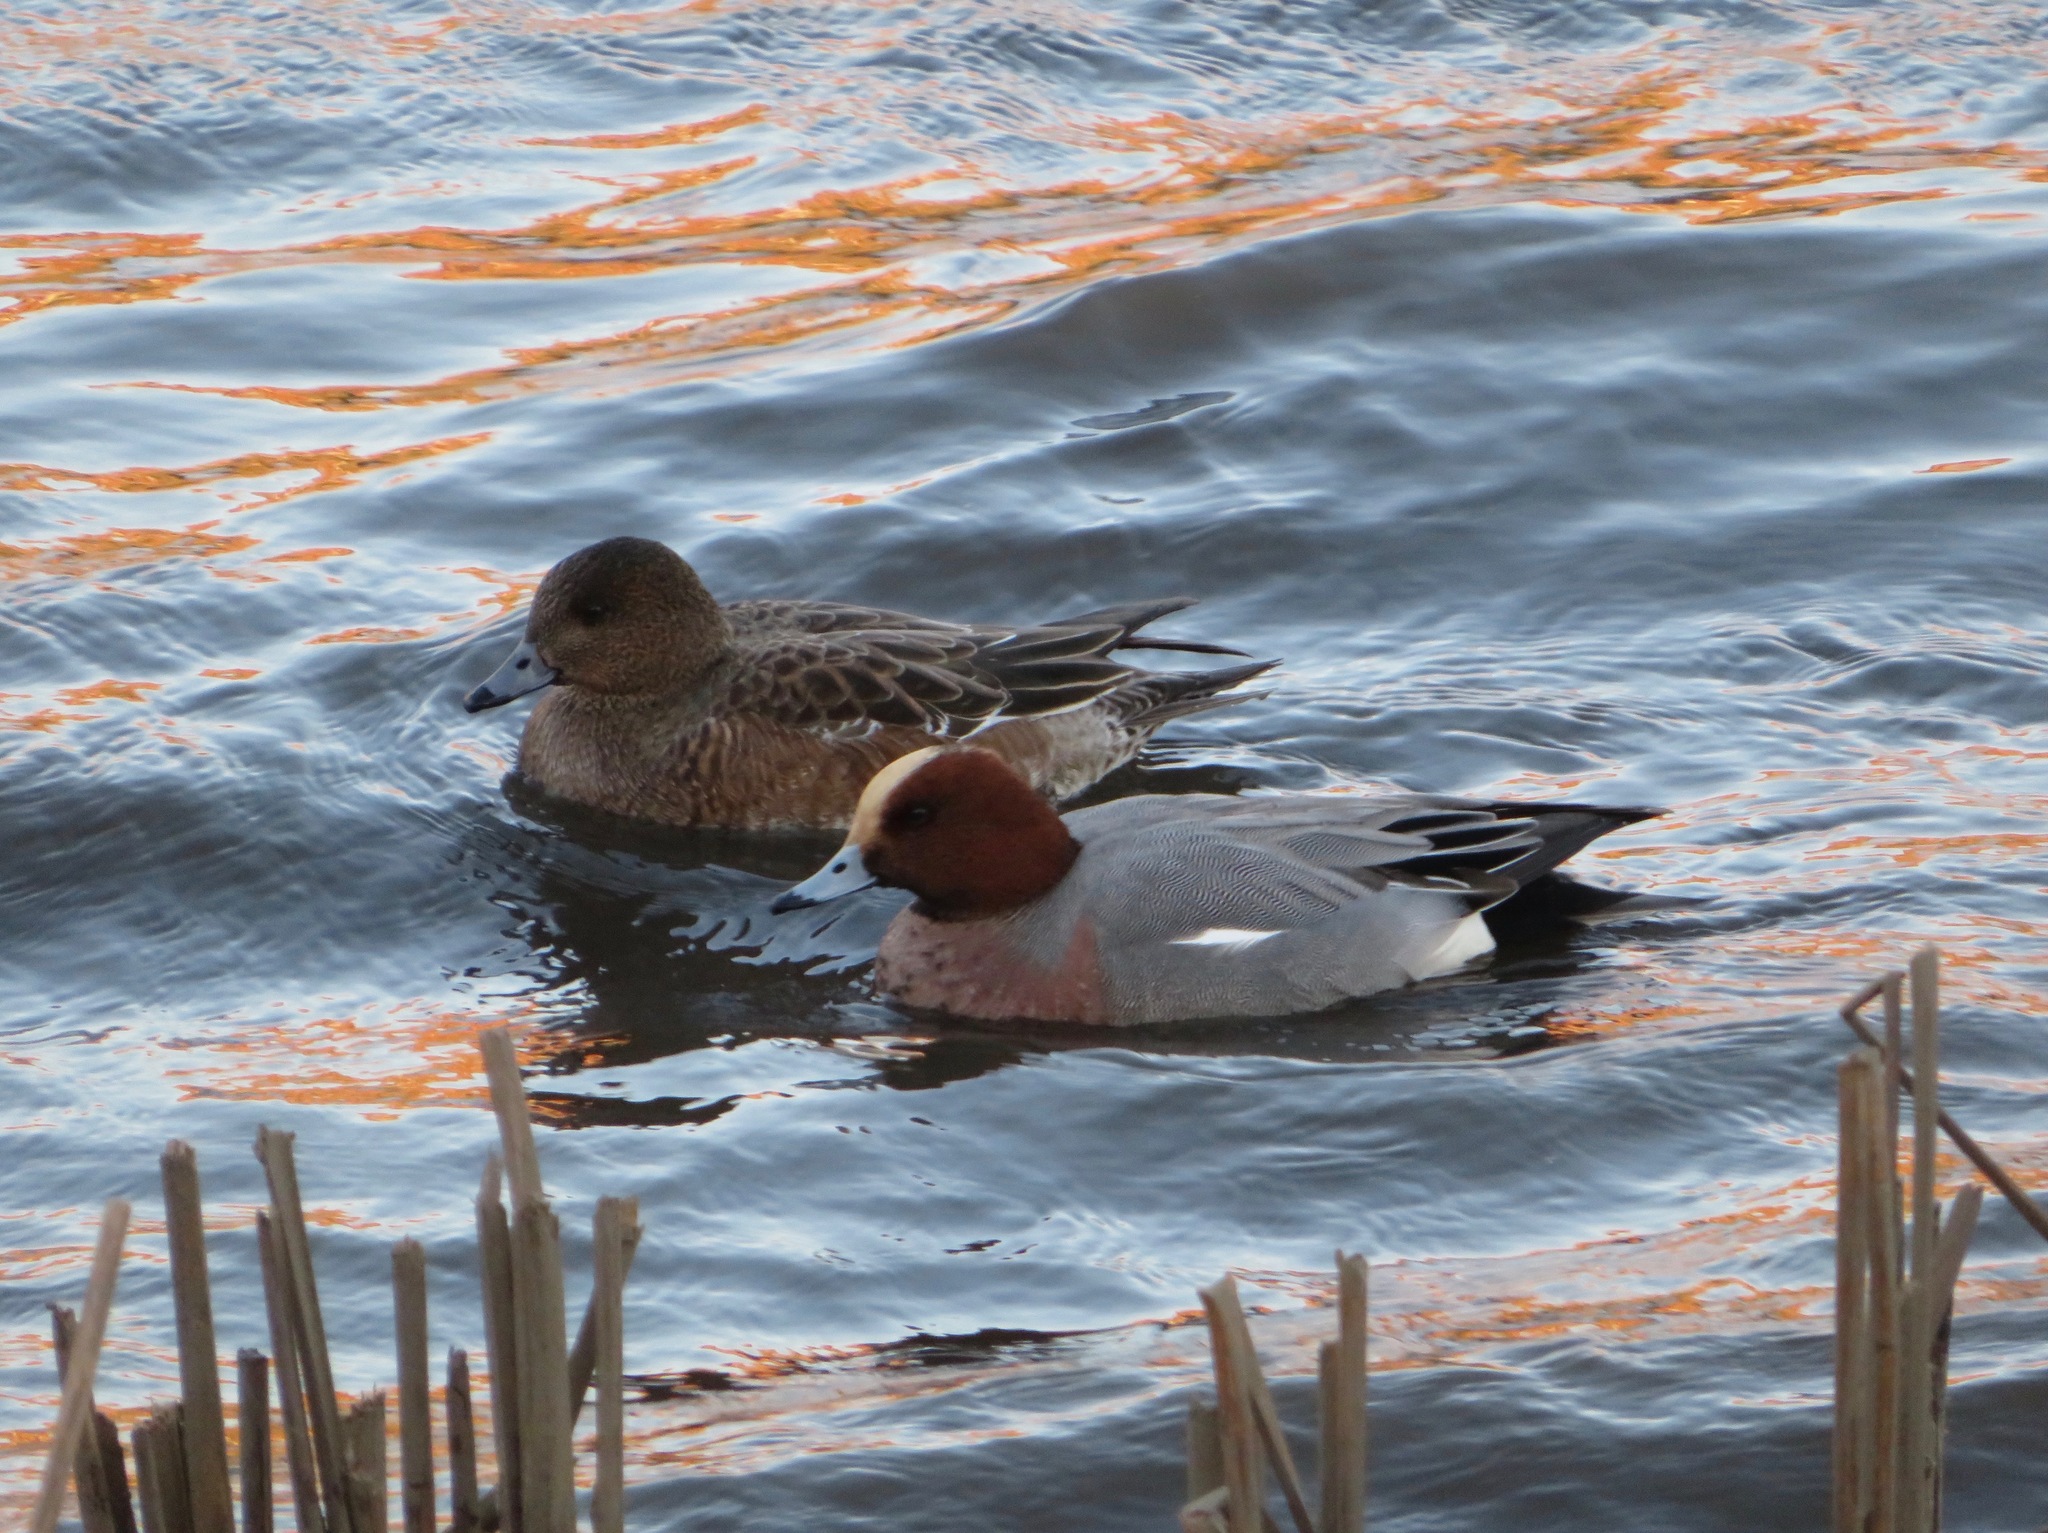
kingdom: Animalia
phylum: Chordata
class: Aves
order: Anseriformes
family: Anatidae
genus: Mareca
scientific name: Mareca penelope
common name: Eurasian wigeon
